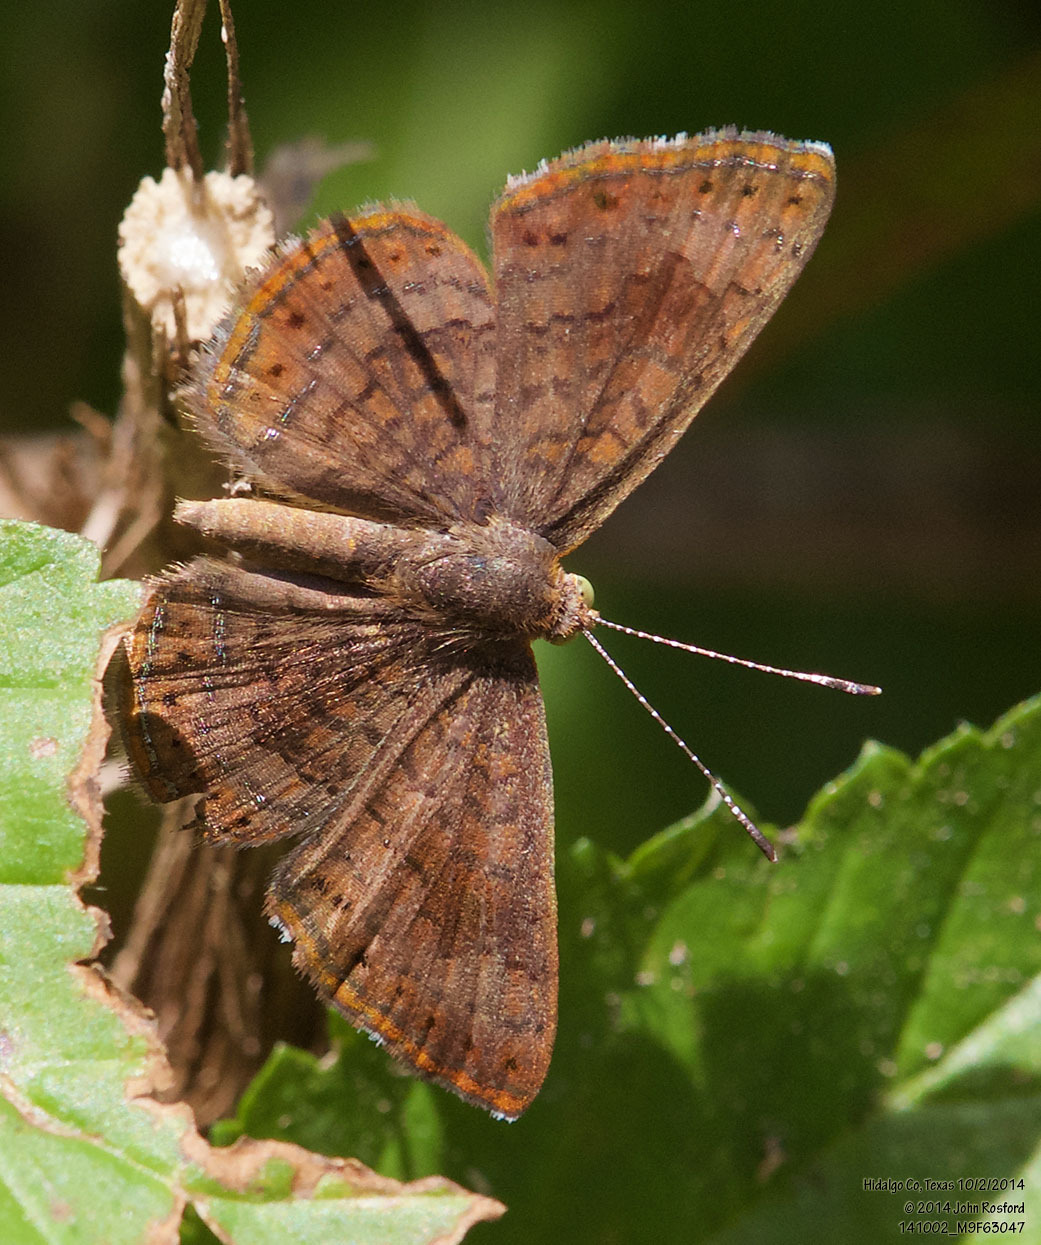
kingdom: Animalia
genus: Calephelis
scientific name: Calephelis nemesis
